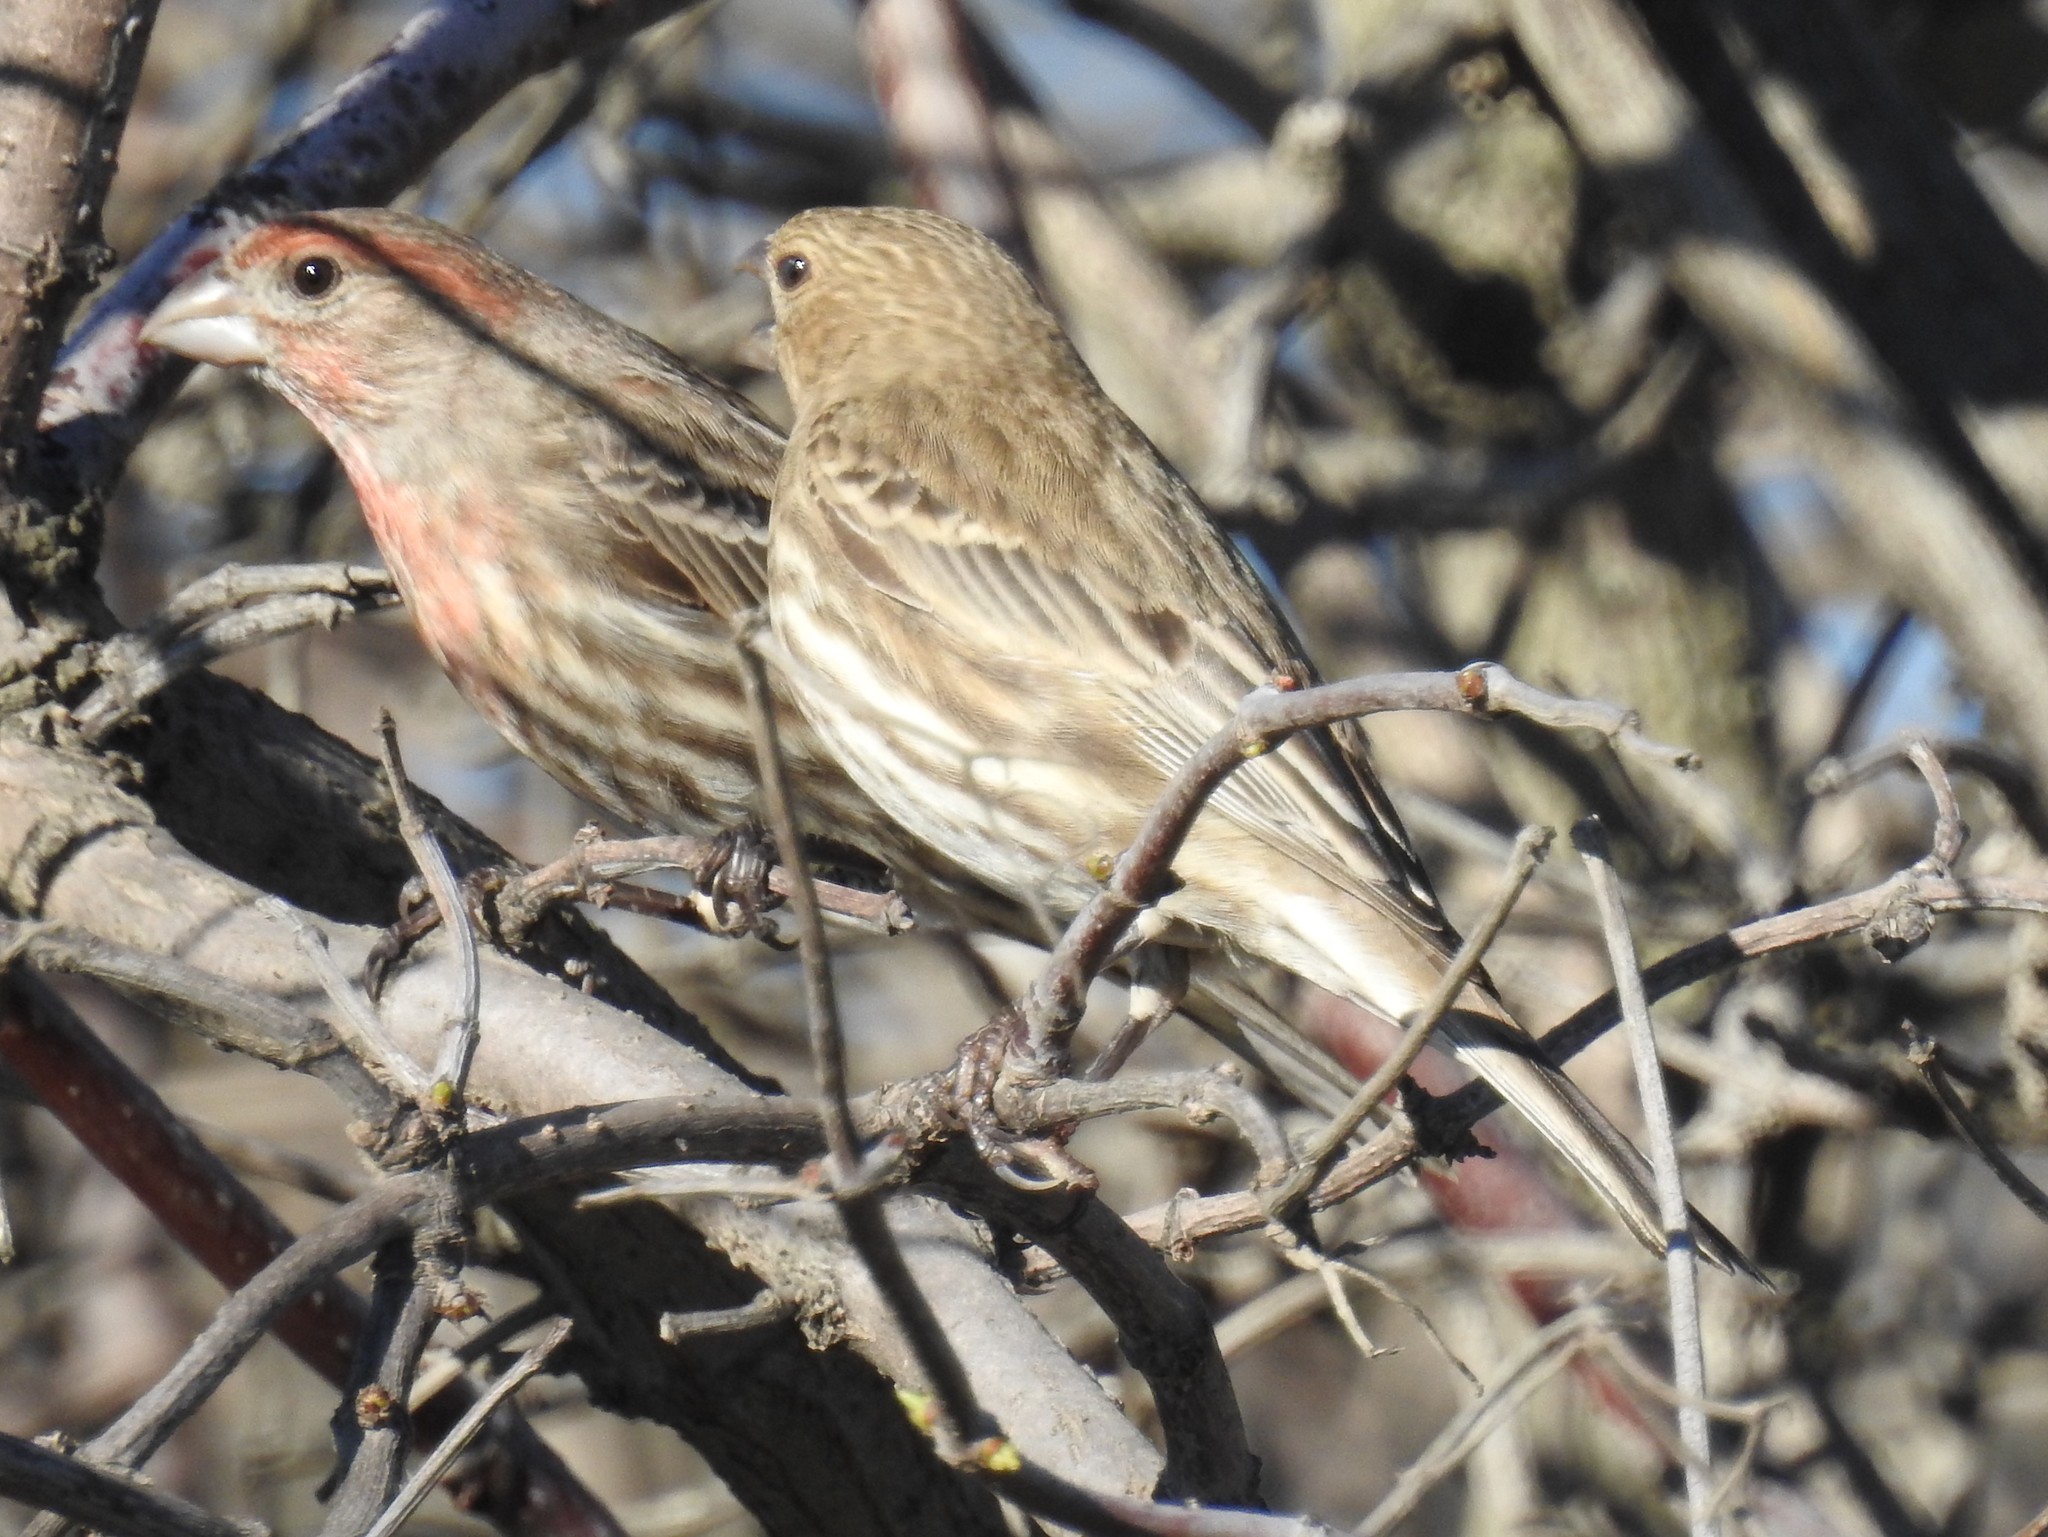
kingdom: Animalia
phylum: Chordata
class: Aves
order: Passeriformes
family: Fringillidae
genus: Haemorhous
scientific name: Haemorhous mexicanus
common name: House finch
